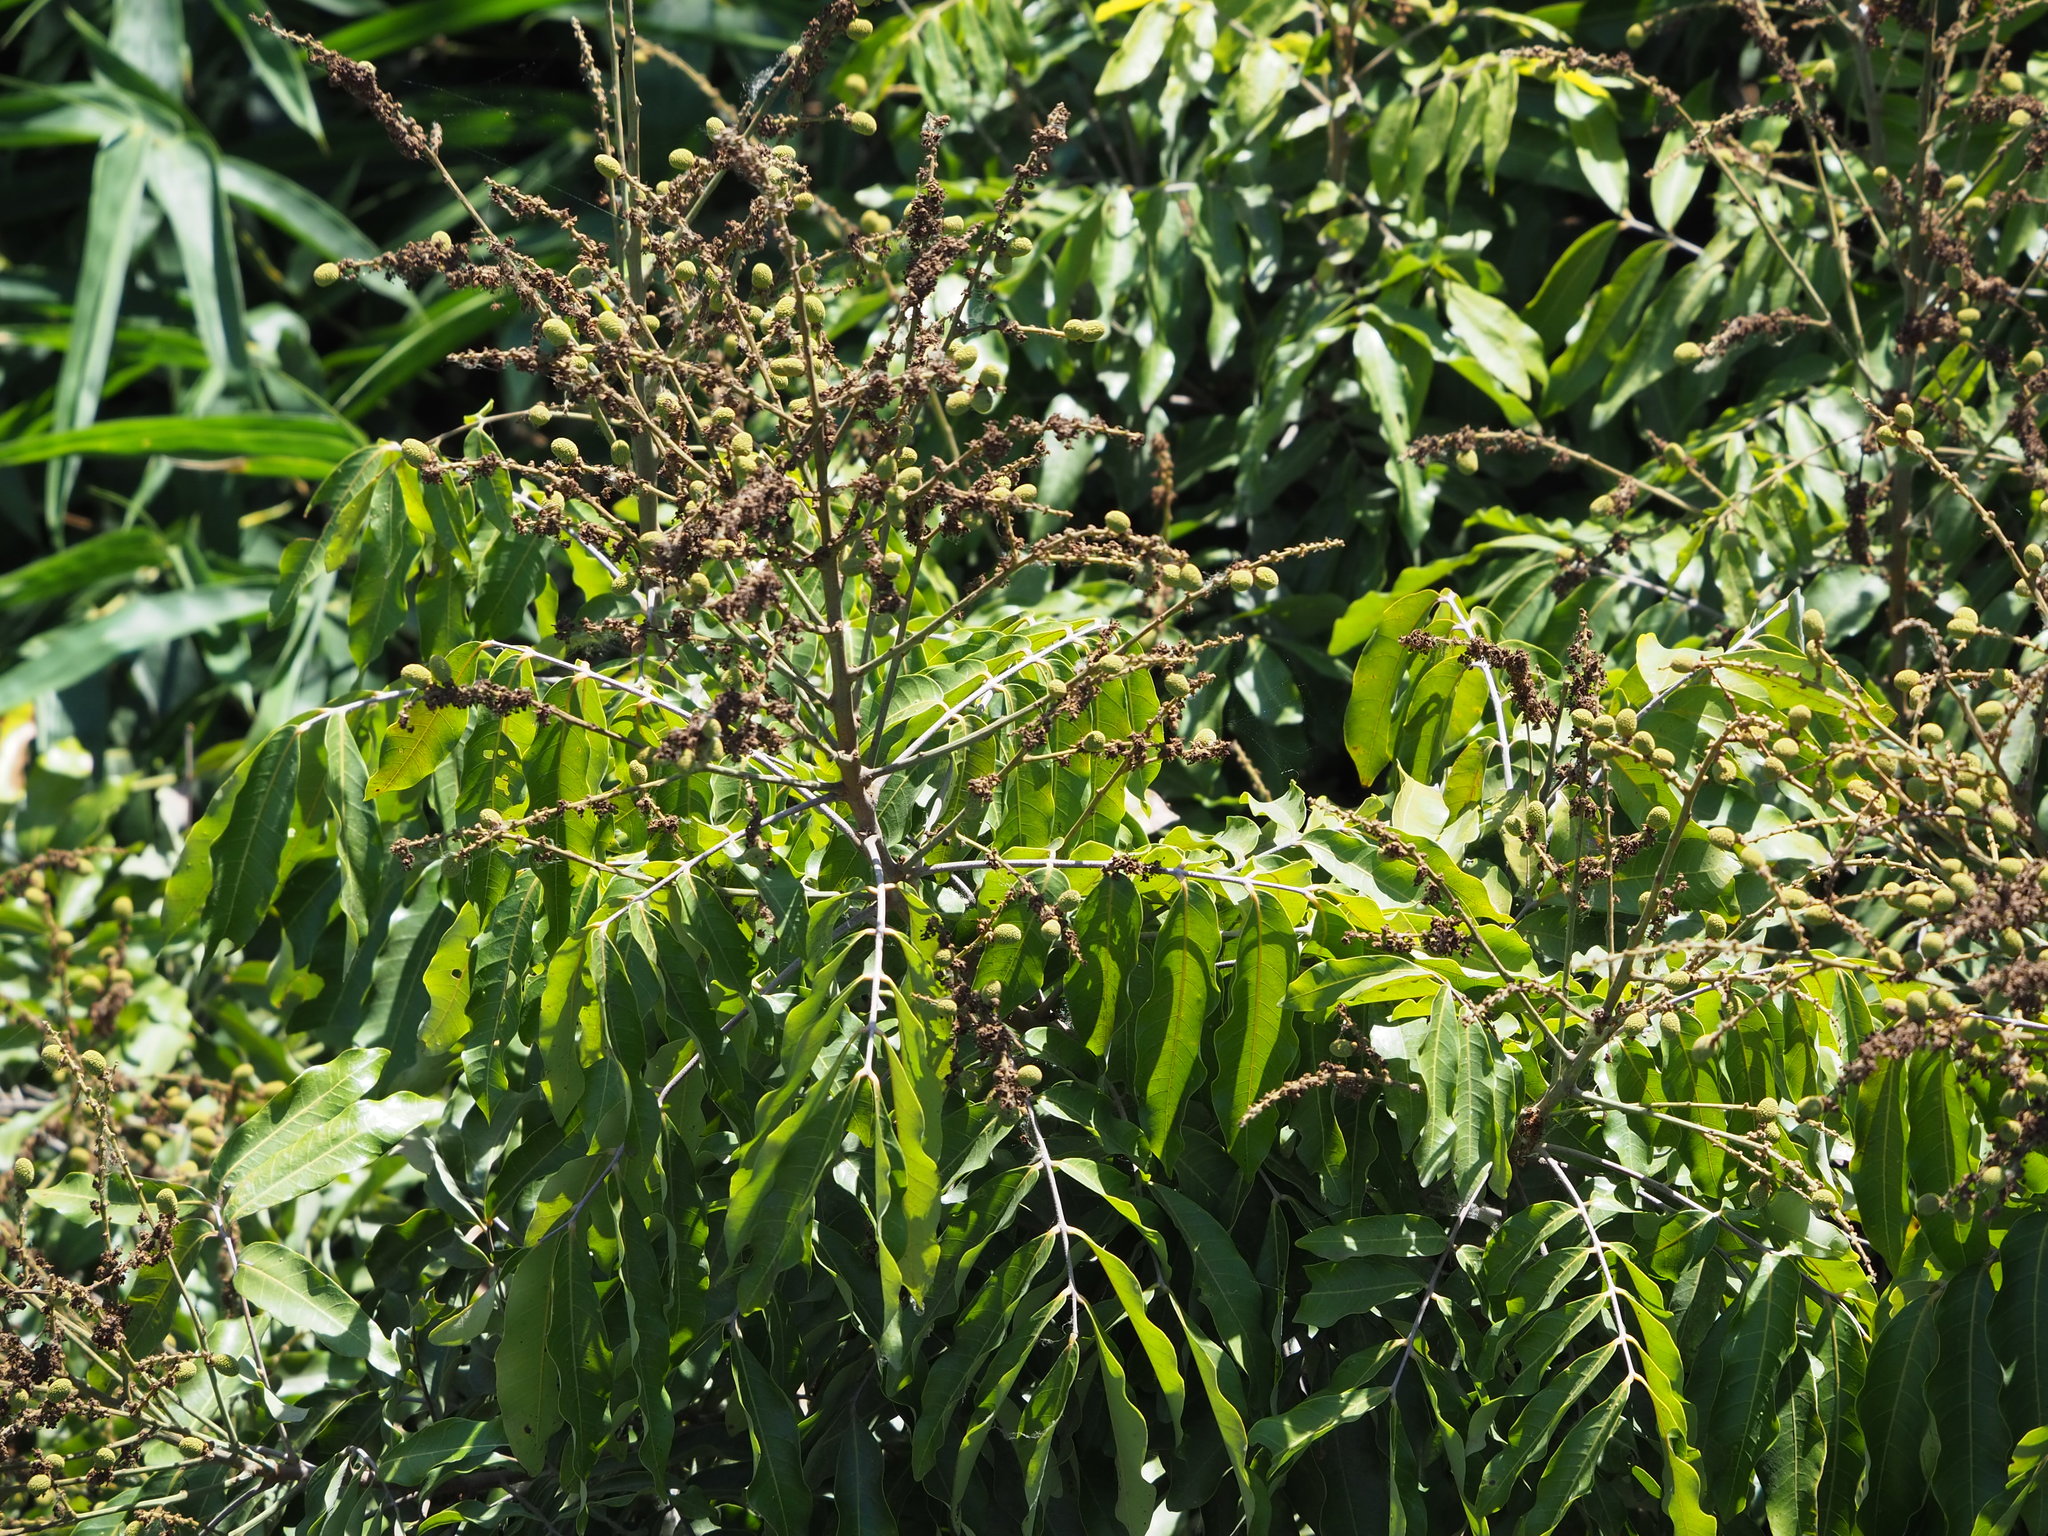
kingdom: Plantae
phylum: Tracheophyta
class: Magnoliopsida
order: Sapindales
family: Sapindaceae
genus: Dimocarpus
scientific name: Dimocarpus longan
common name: Longan
